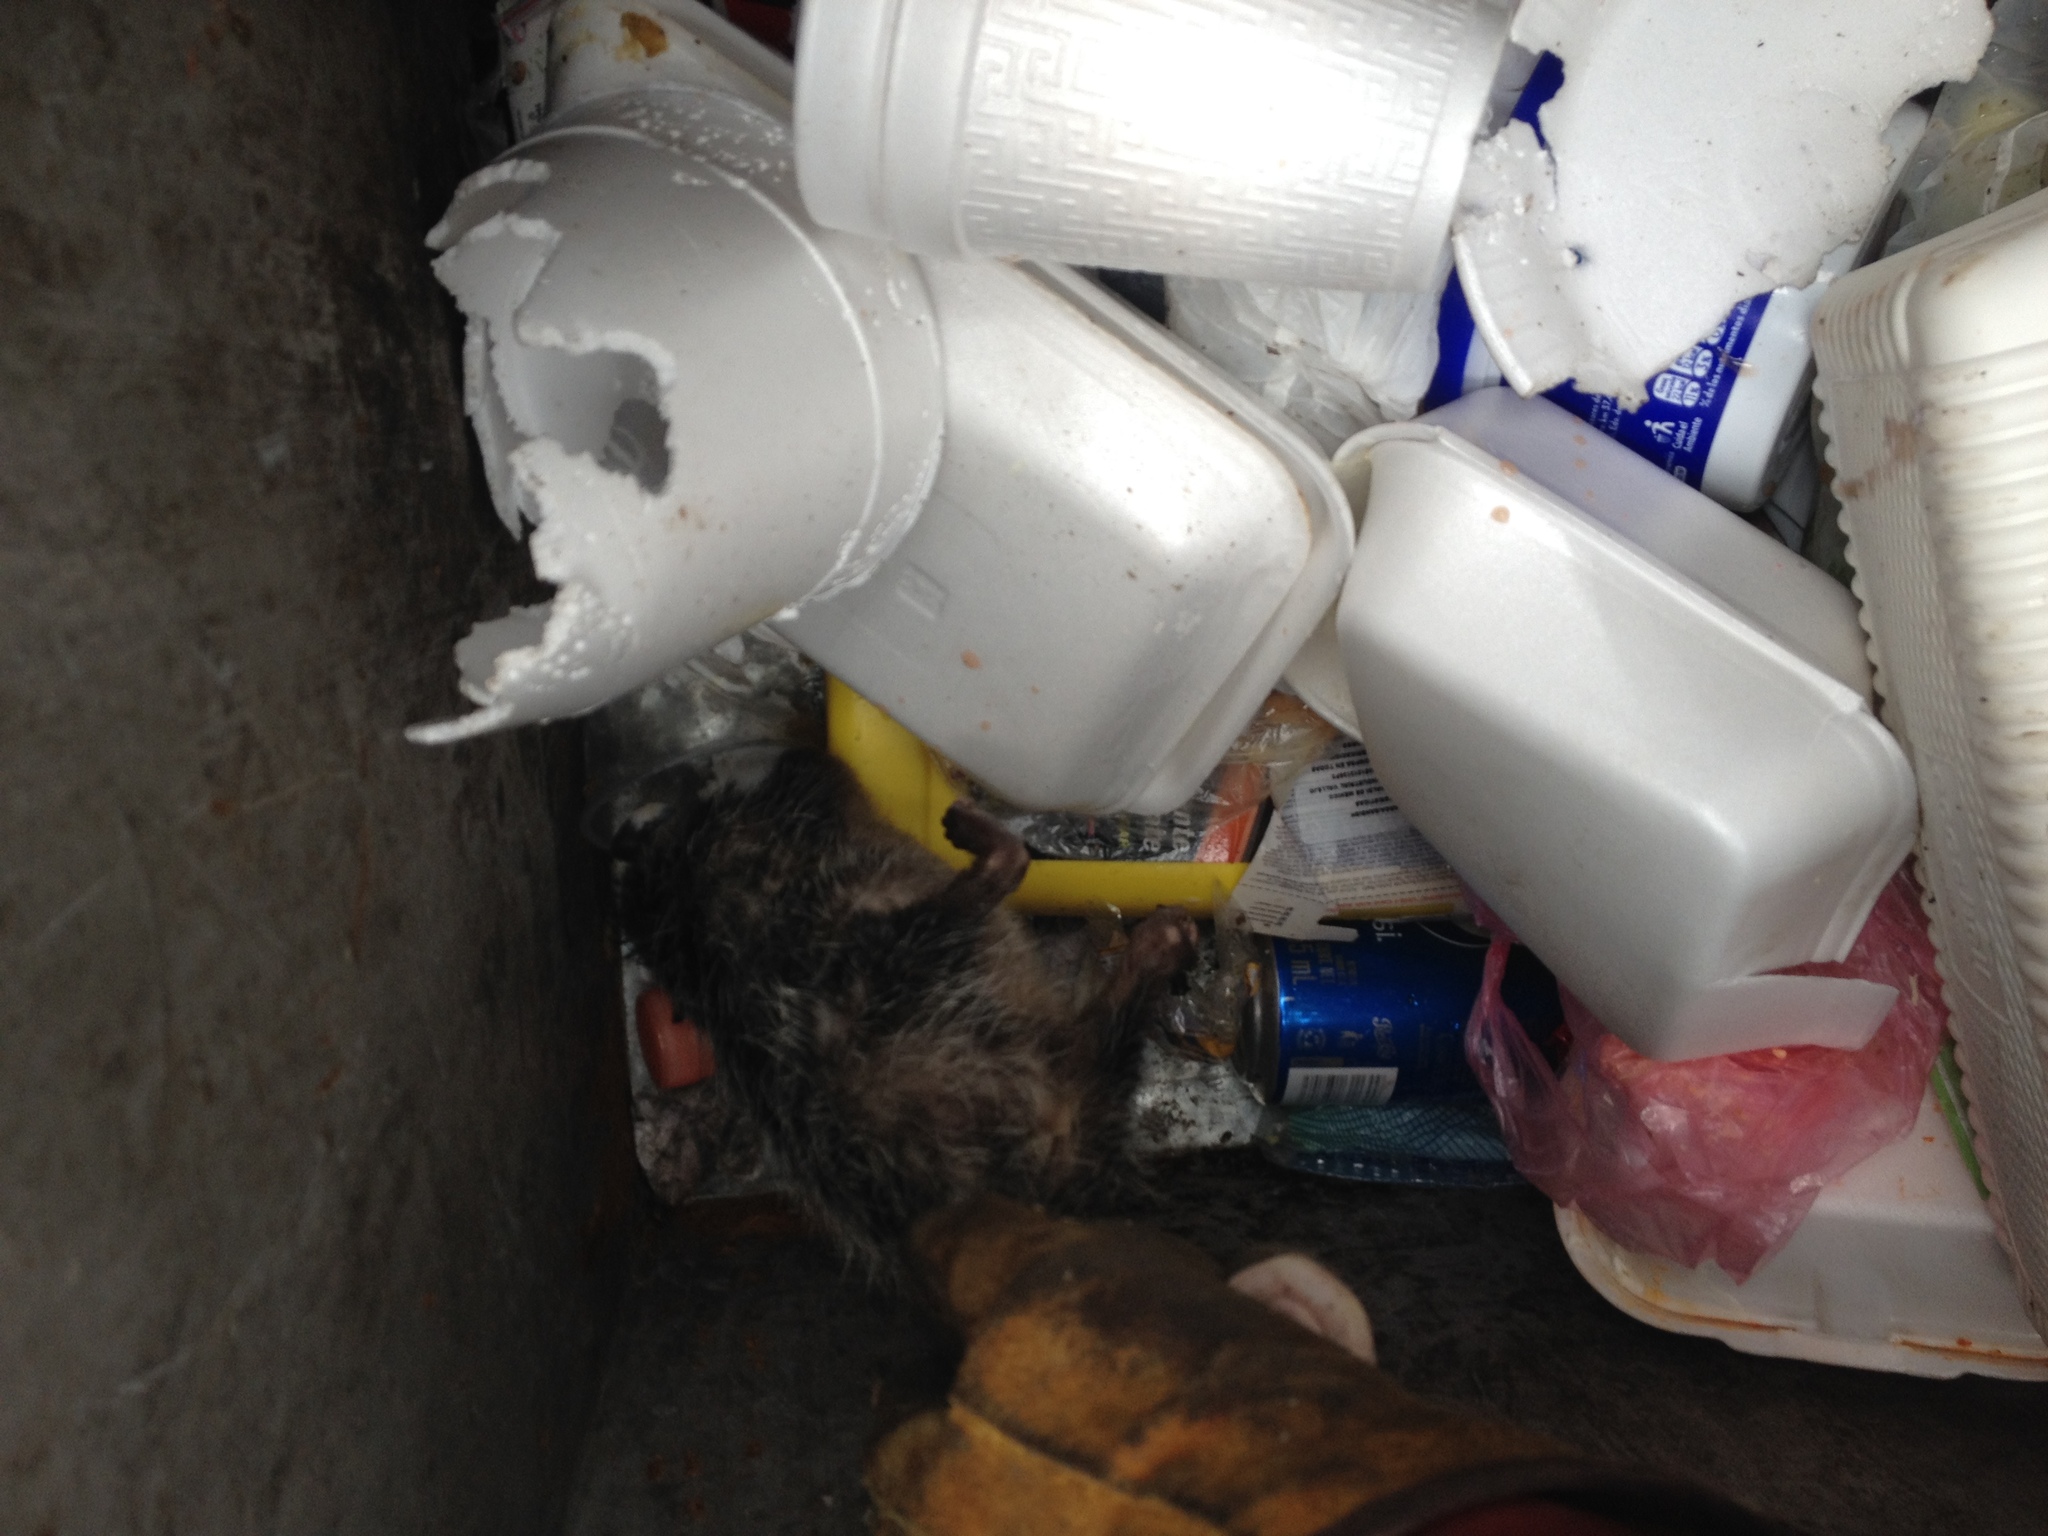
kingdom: Animalia
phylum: Chordata
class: Mammalia
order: Didelphimorphia
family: Didelphidae
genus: Didelphis
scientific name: Didelphis virginiana
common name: Virginia opossum
